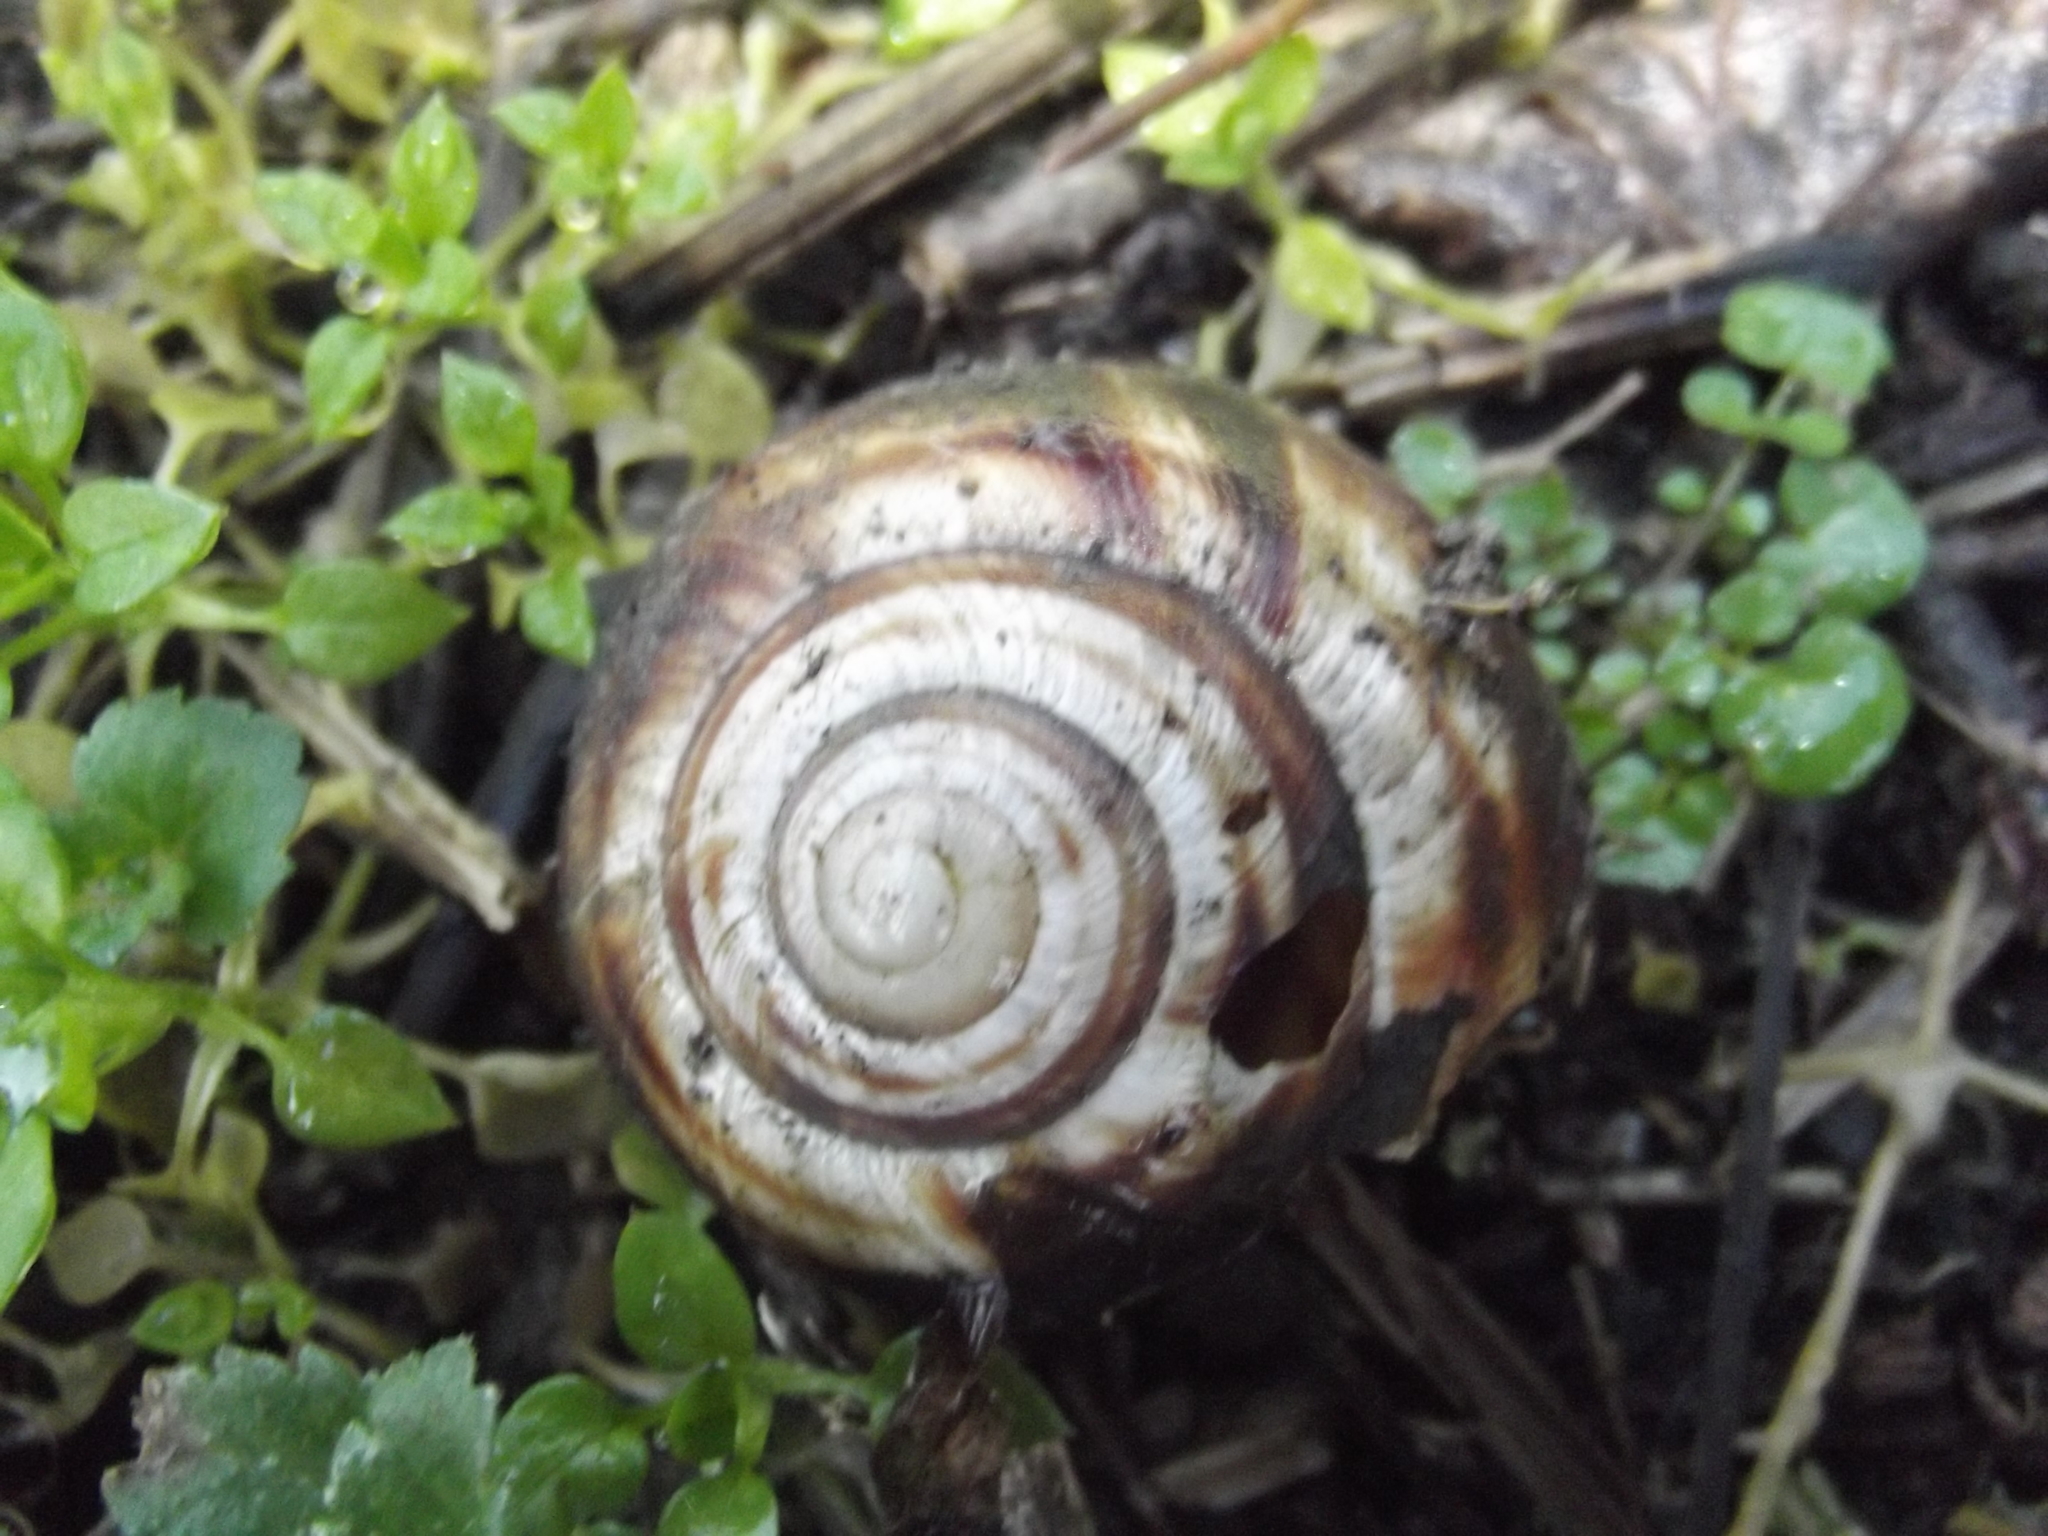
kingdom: Animalia
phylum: Mollusca
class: Gastropoda
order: Stylommatophora
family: Helicidae
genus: Helix
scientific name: Helix straminea
